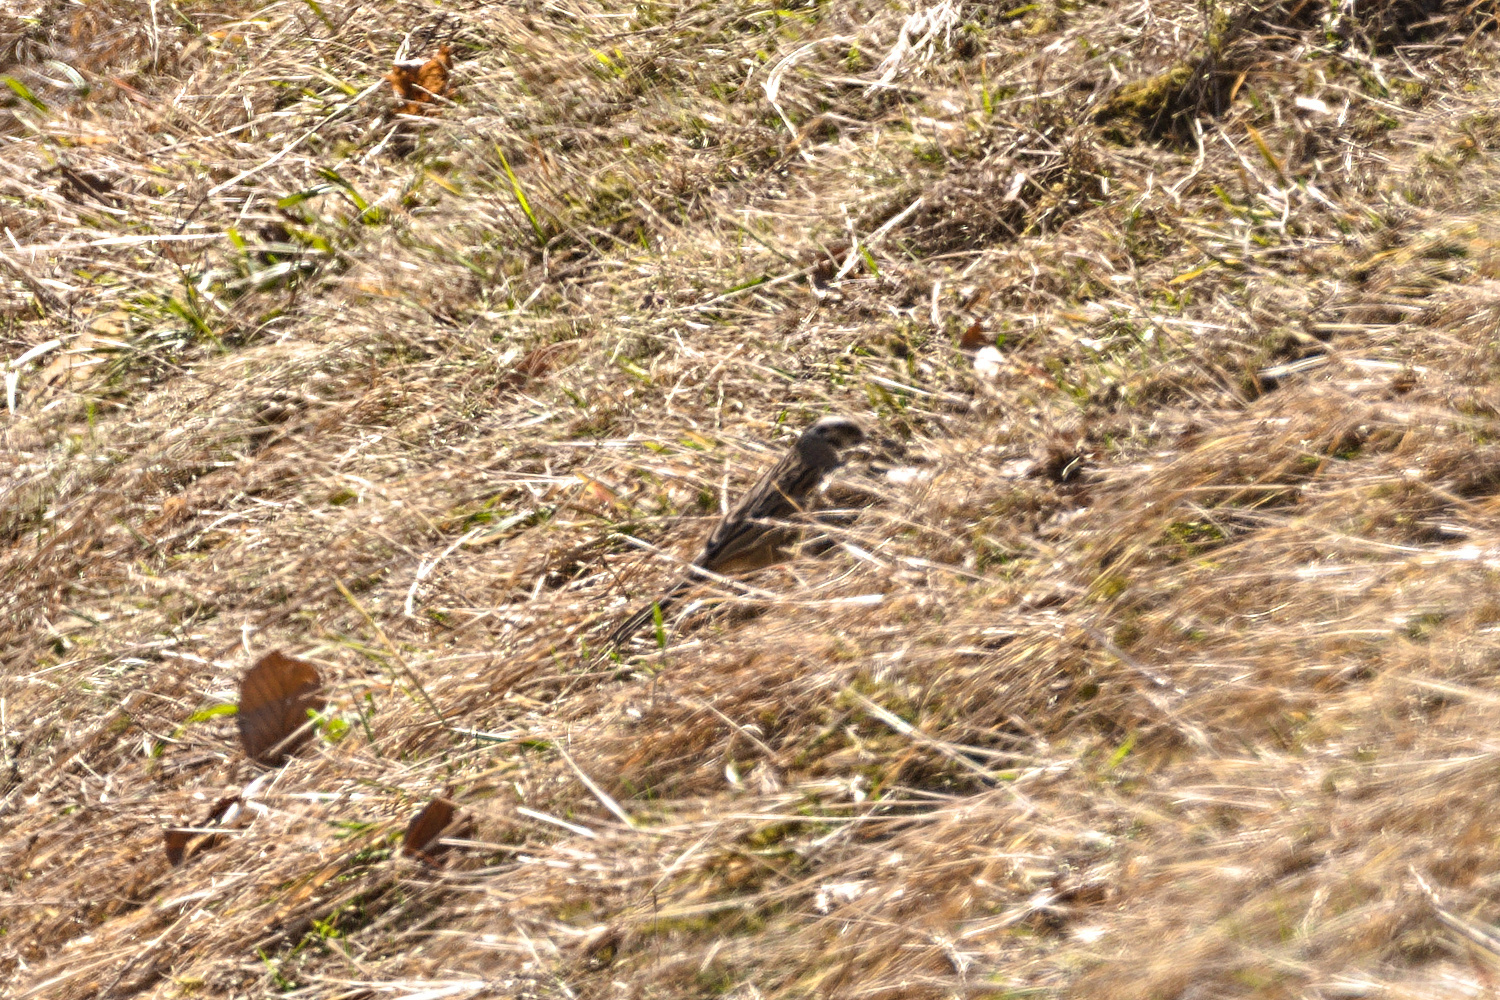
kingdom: Animalia
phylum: Chordata
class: Aves
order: Passeriformes
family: Emberizidae
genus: Emberiza
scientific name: Emberiza cia
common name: Rock bunting
